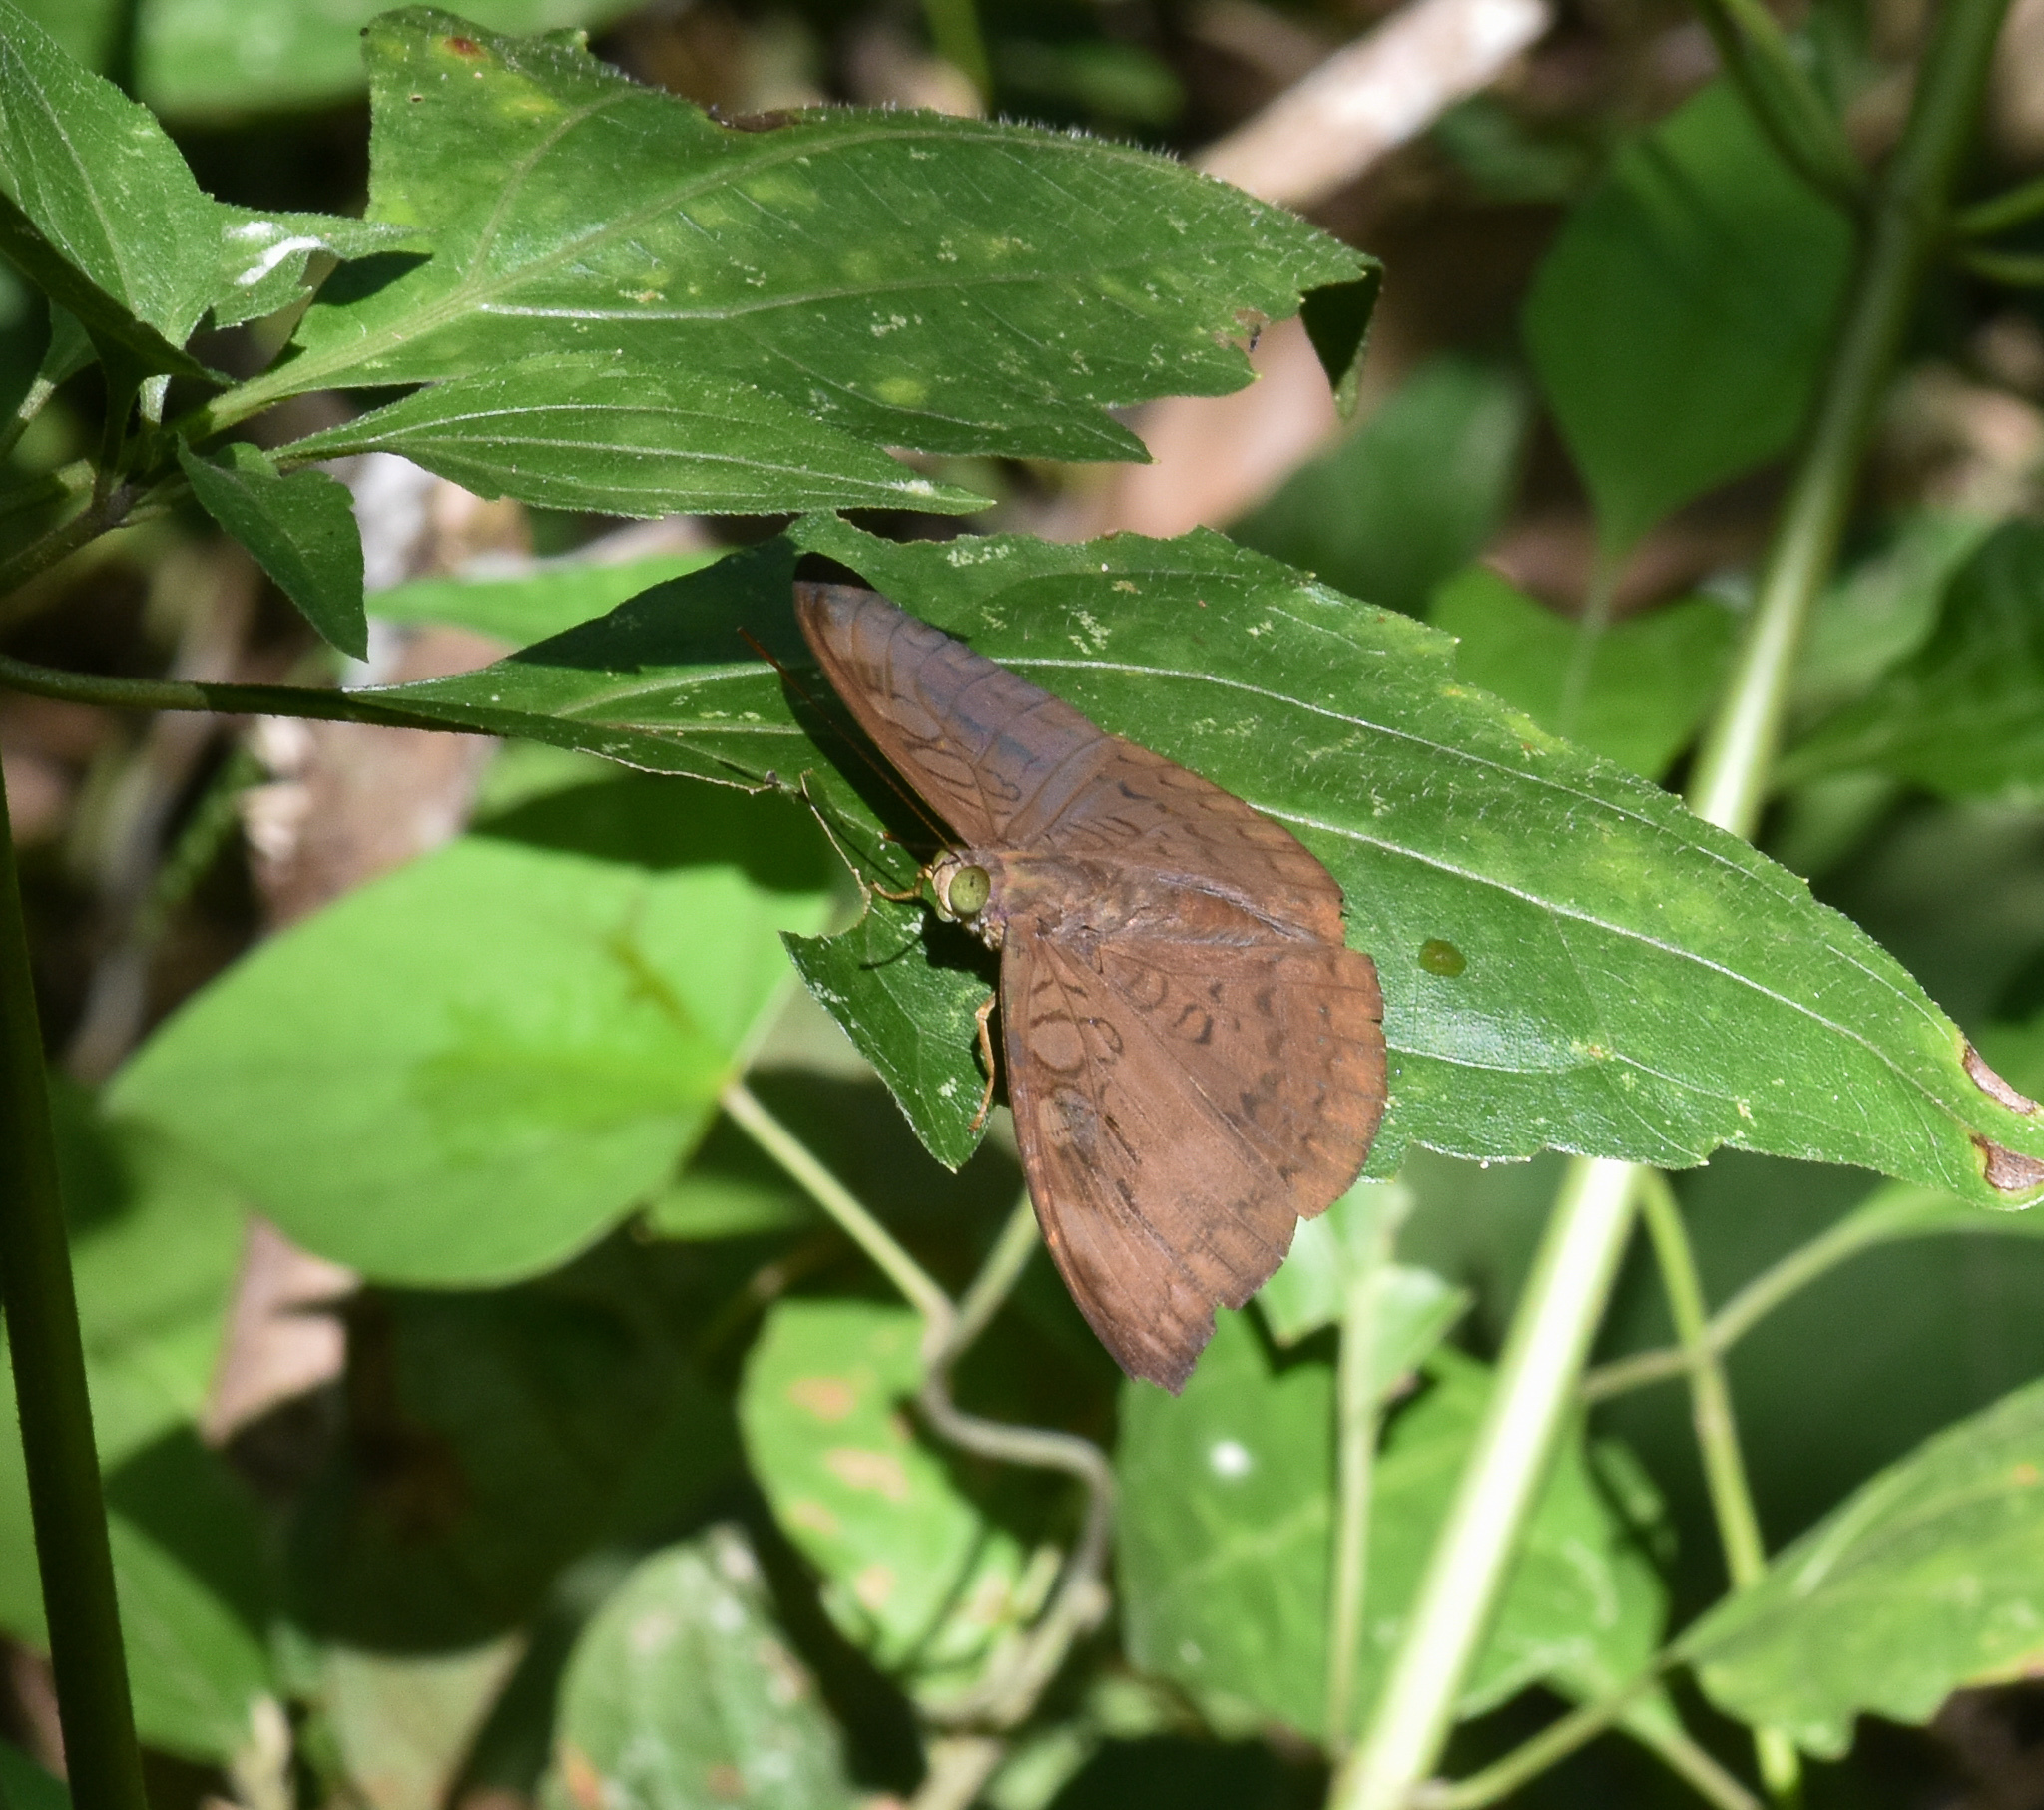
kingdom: Animalia
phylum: Arthropoda
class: Insecta
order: Lepidoptera
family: Nymphalidae
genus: Tanaecia
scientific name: Tanaecia jahnu
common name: Plain earl
